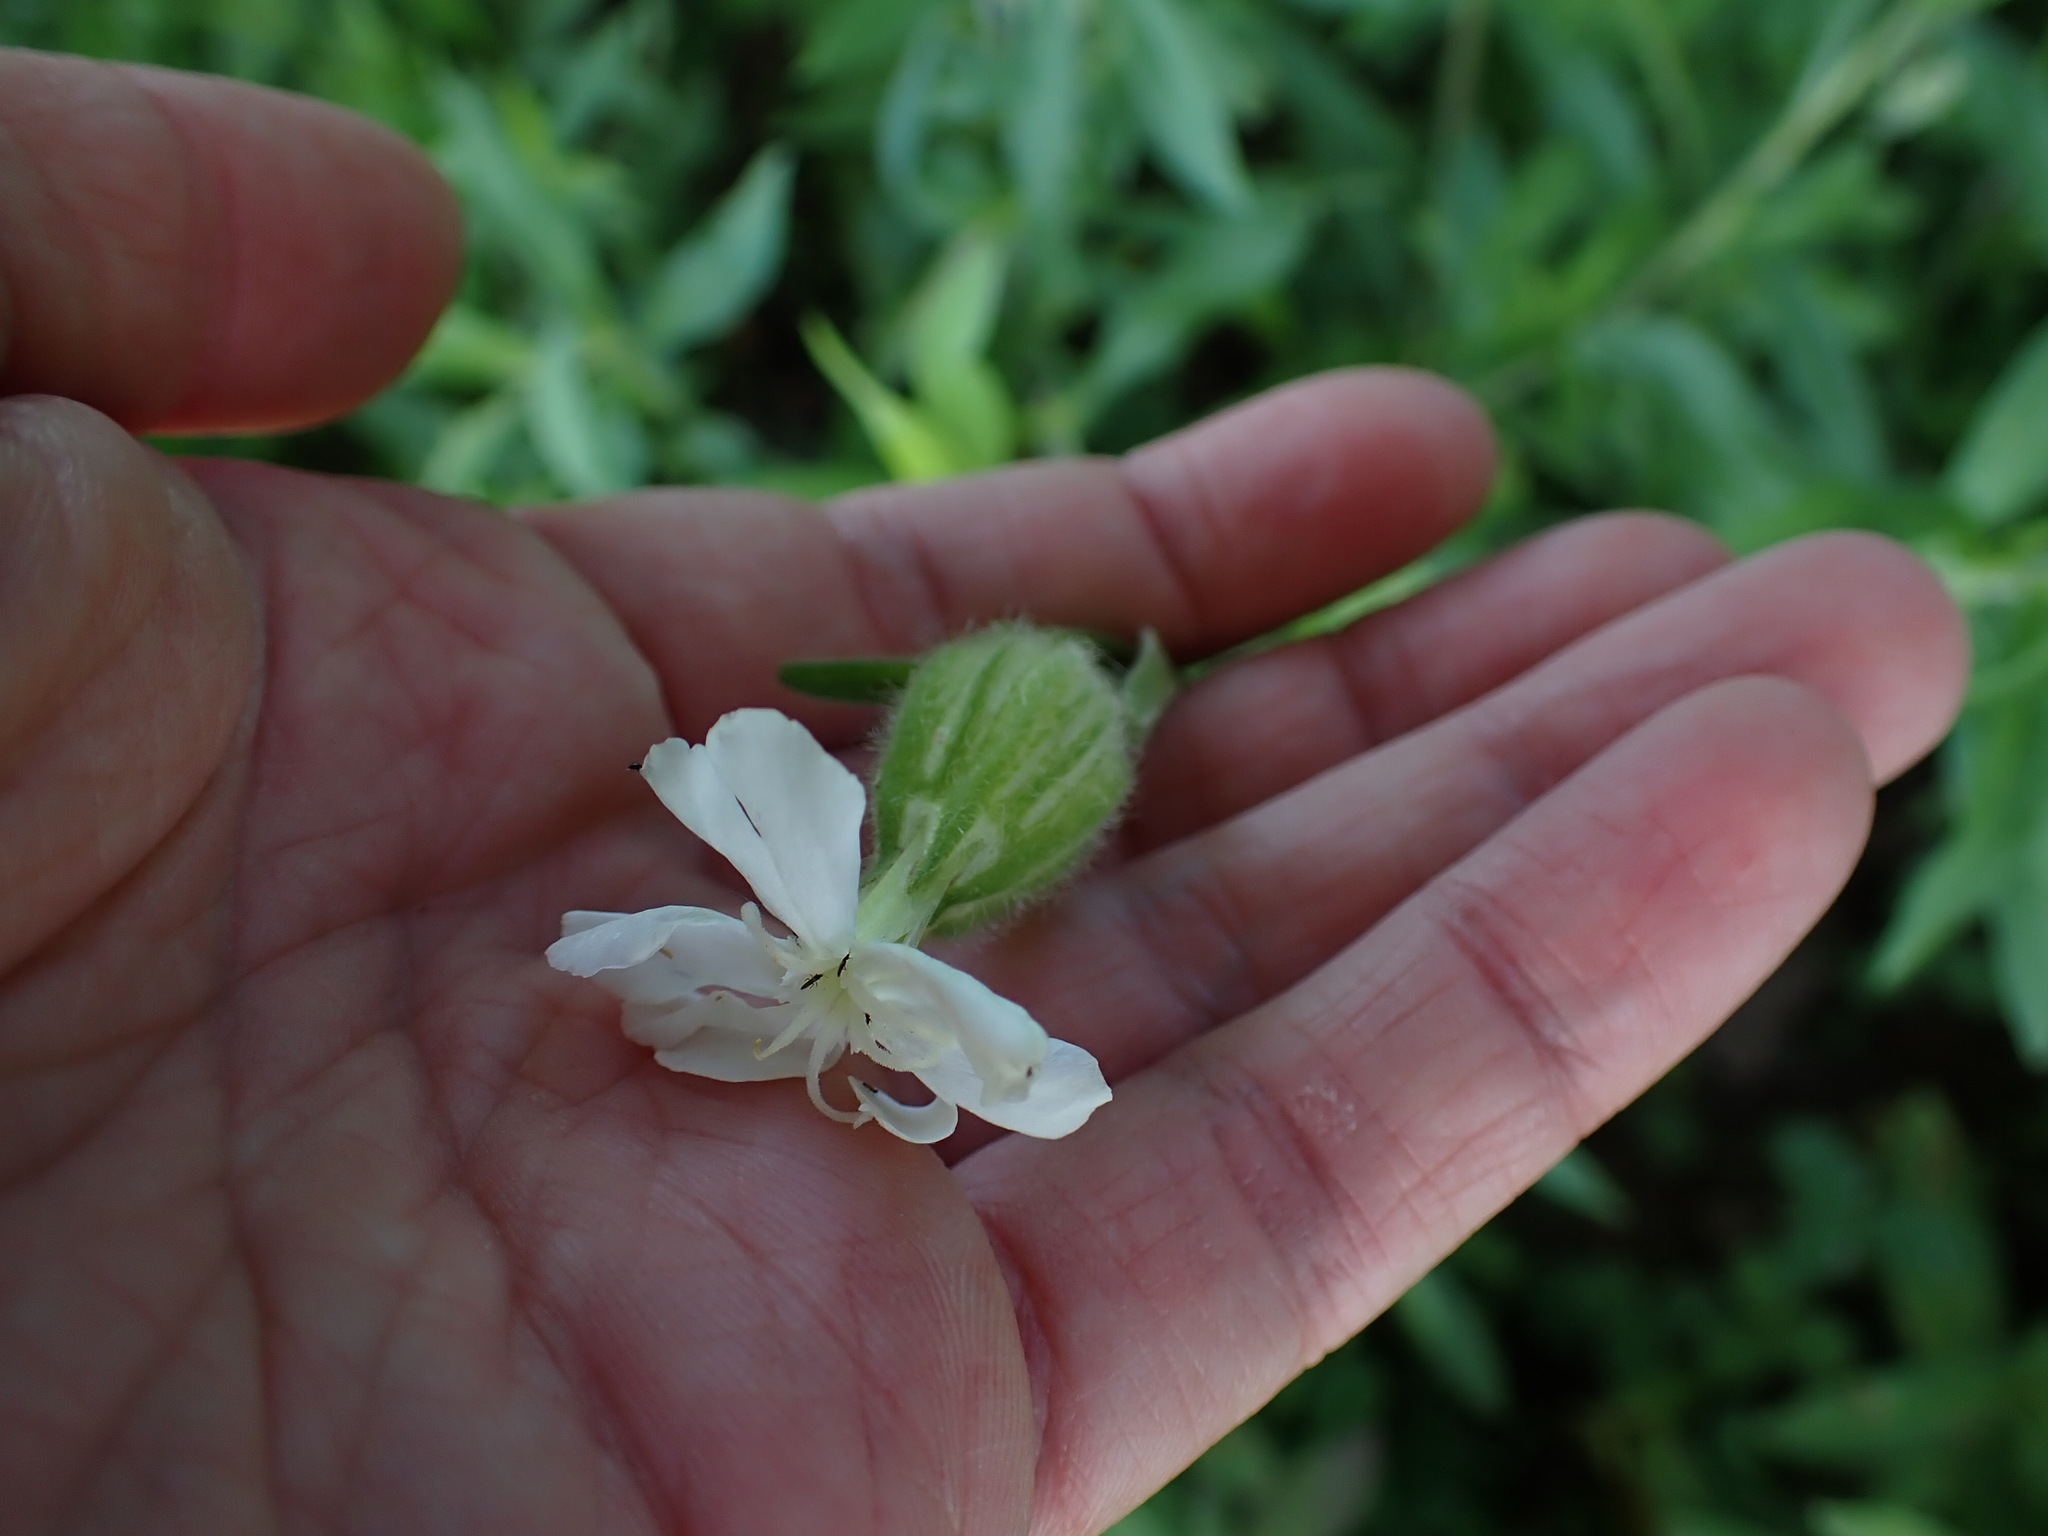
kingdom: Plantae
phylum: Tracheophyta
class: Magnoliopsida
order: Caryophyllales
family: Caryophyllaceae
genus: Silene
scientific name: Silene latifolia
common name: White campion
